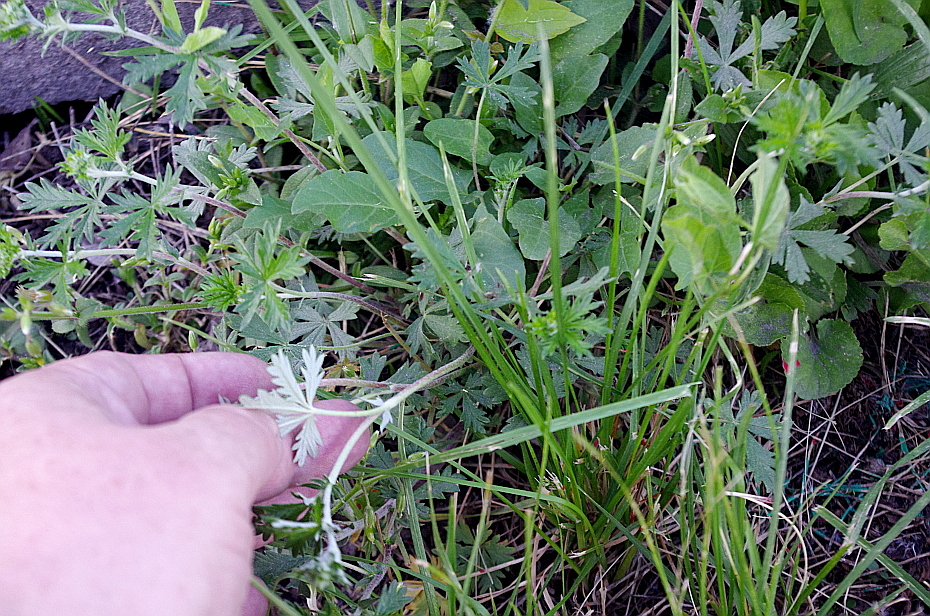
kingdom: Plantae
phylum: Tracheophyta
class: Magnoliopsida
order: Rosales
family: Rosaceae
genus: Potentilla
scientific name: Potentilla argentea
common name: Hoary cinquefoil
